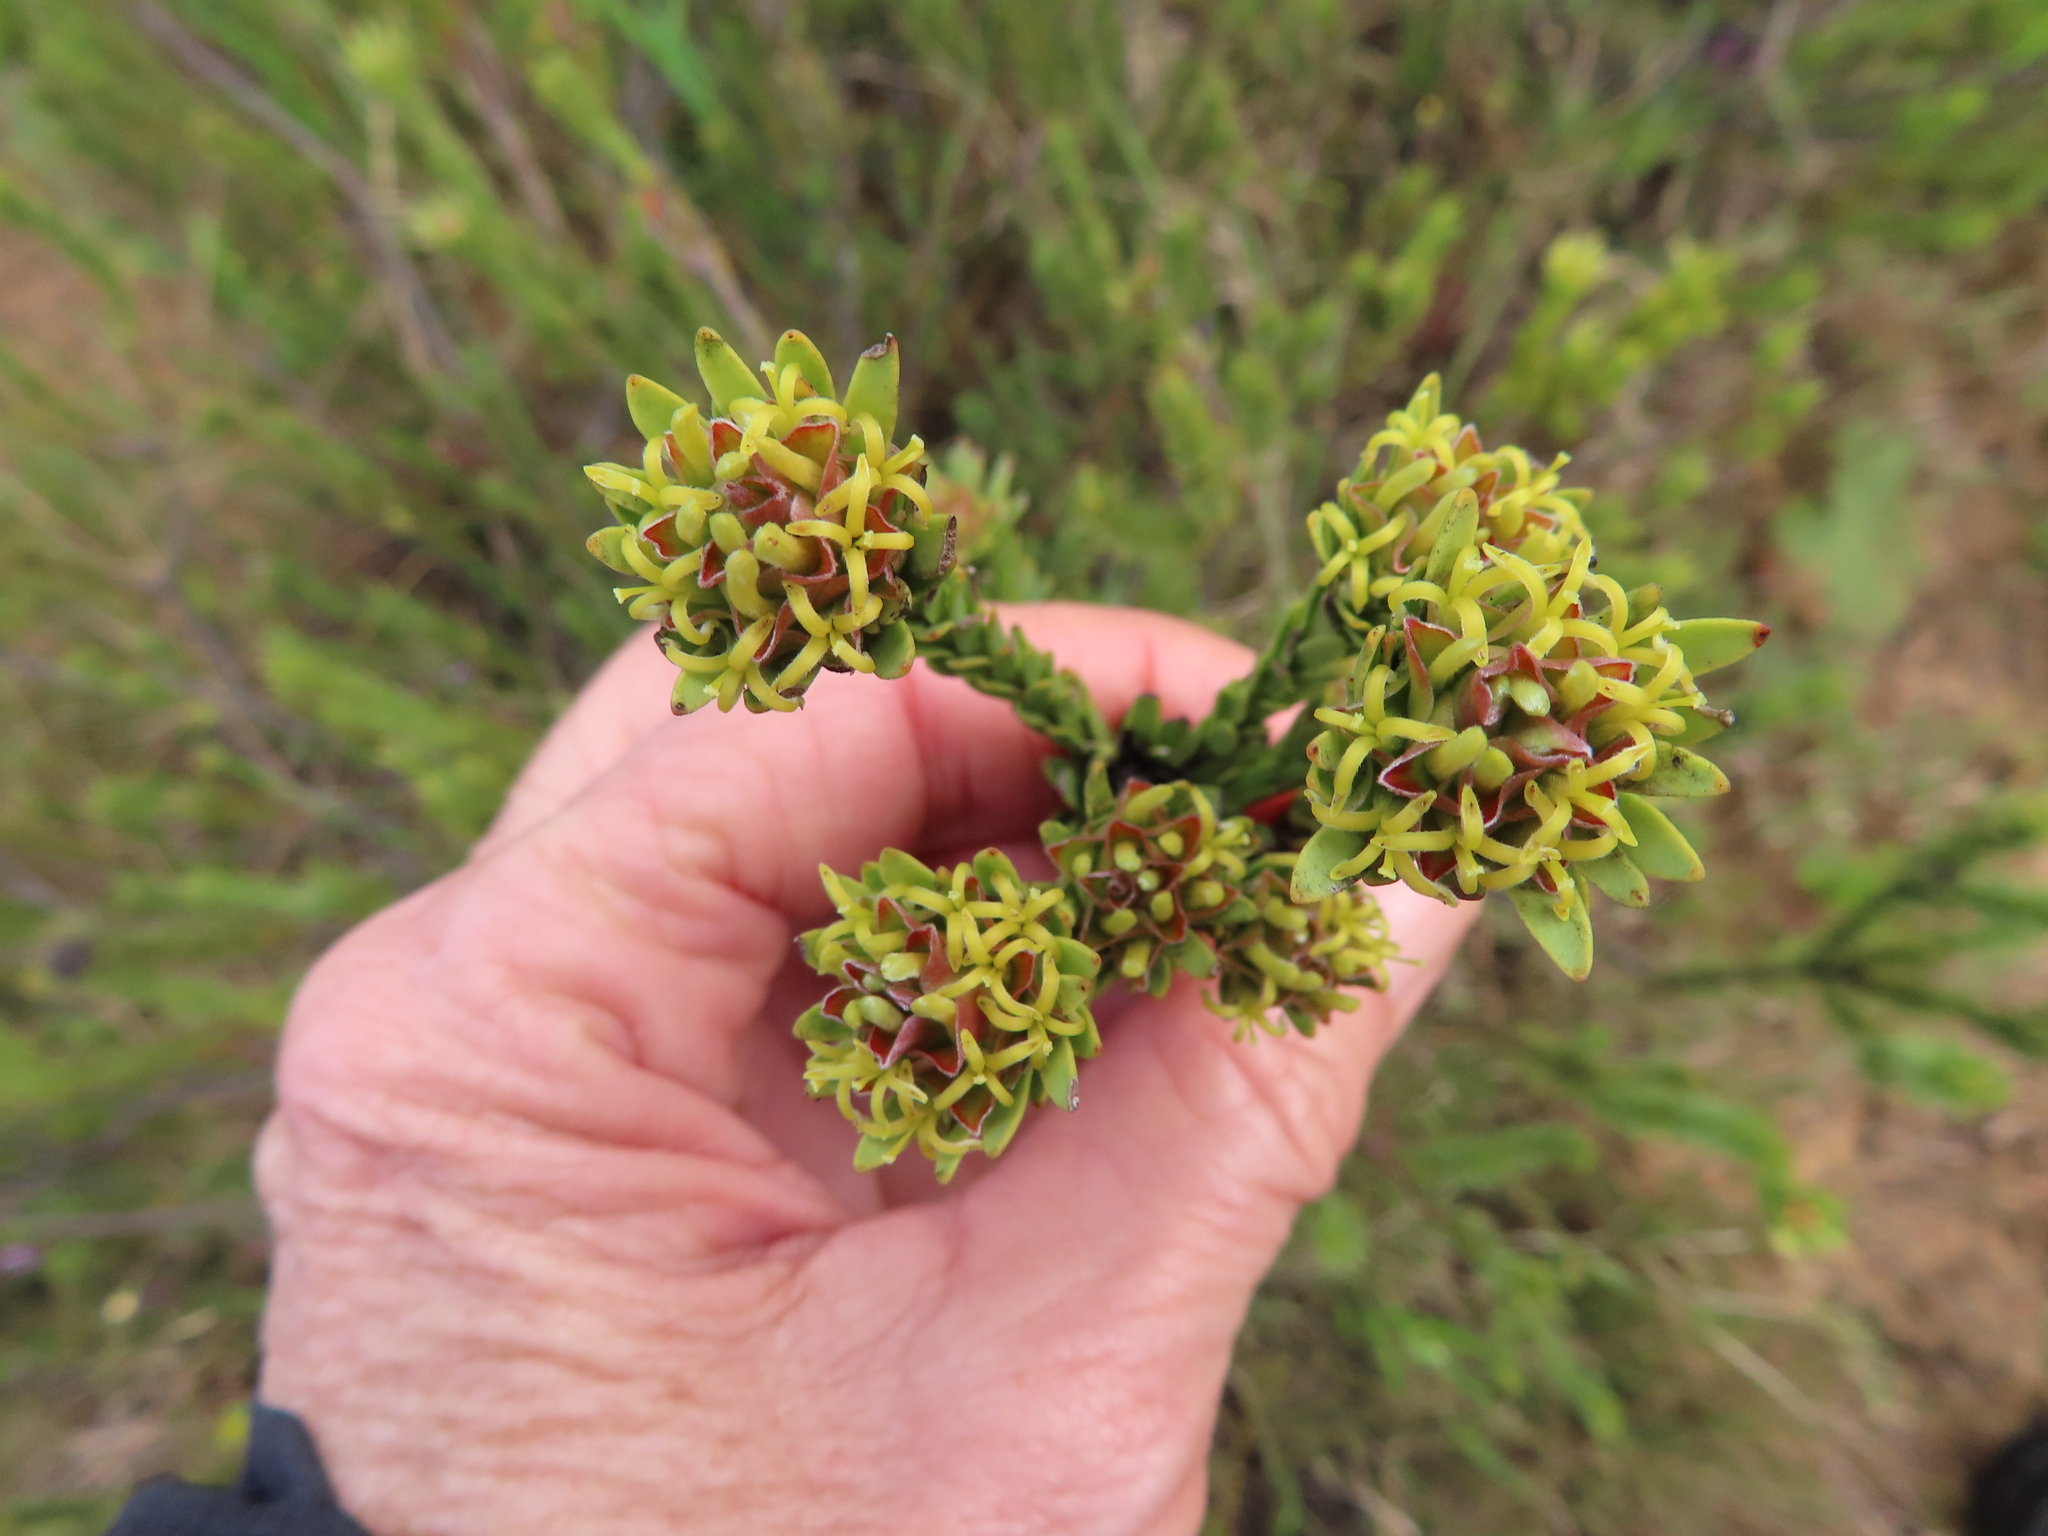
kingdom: Plantae
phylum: Tracheophyta
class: Magnoliopsida
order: Proteales
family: Proteaceae
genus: Leucadendron
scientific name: Leucadendron stellare
